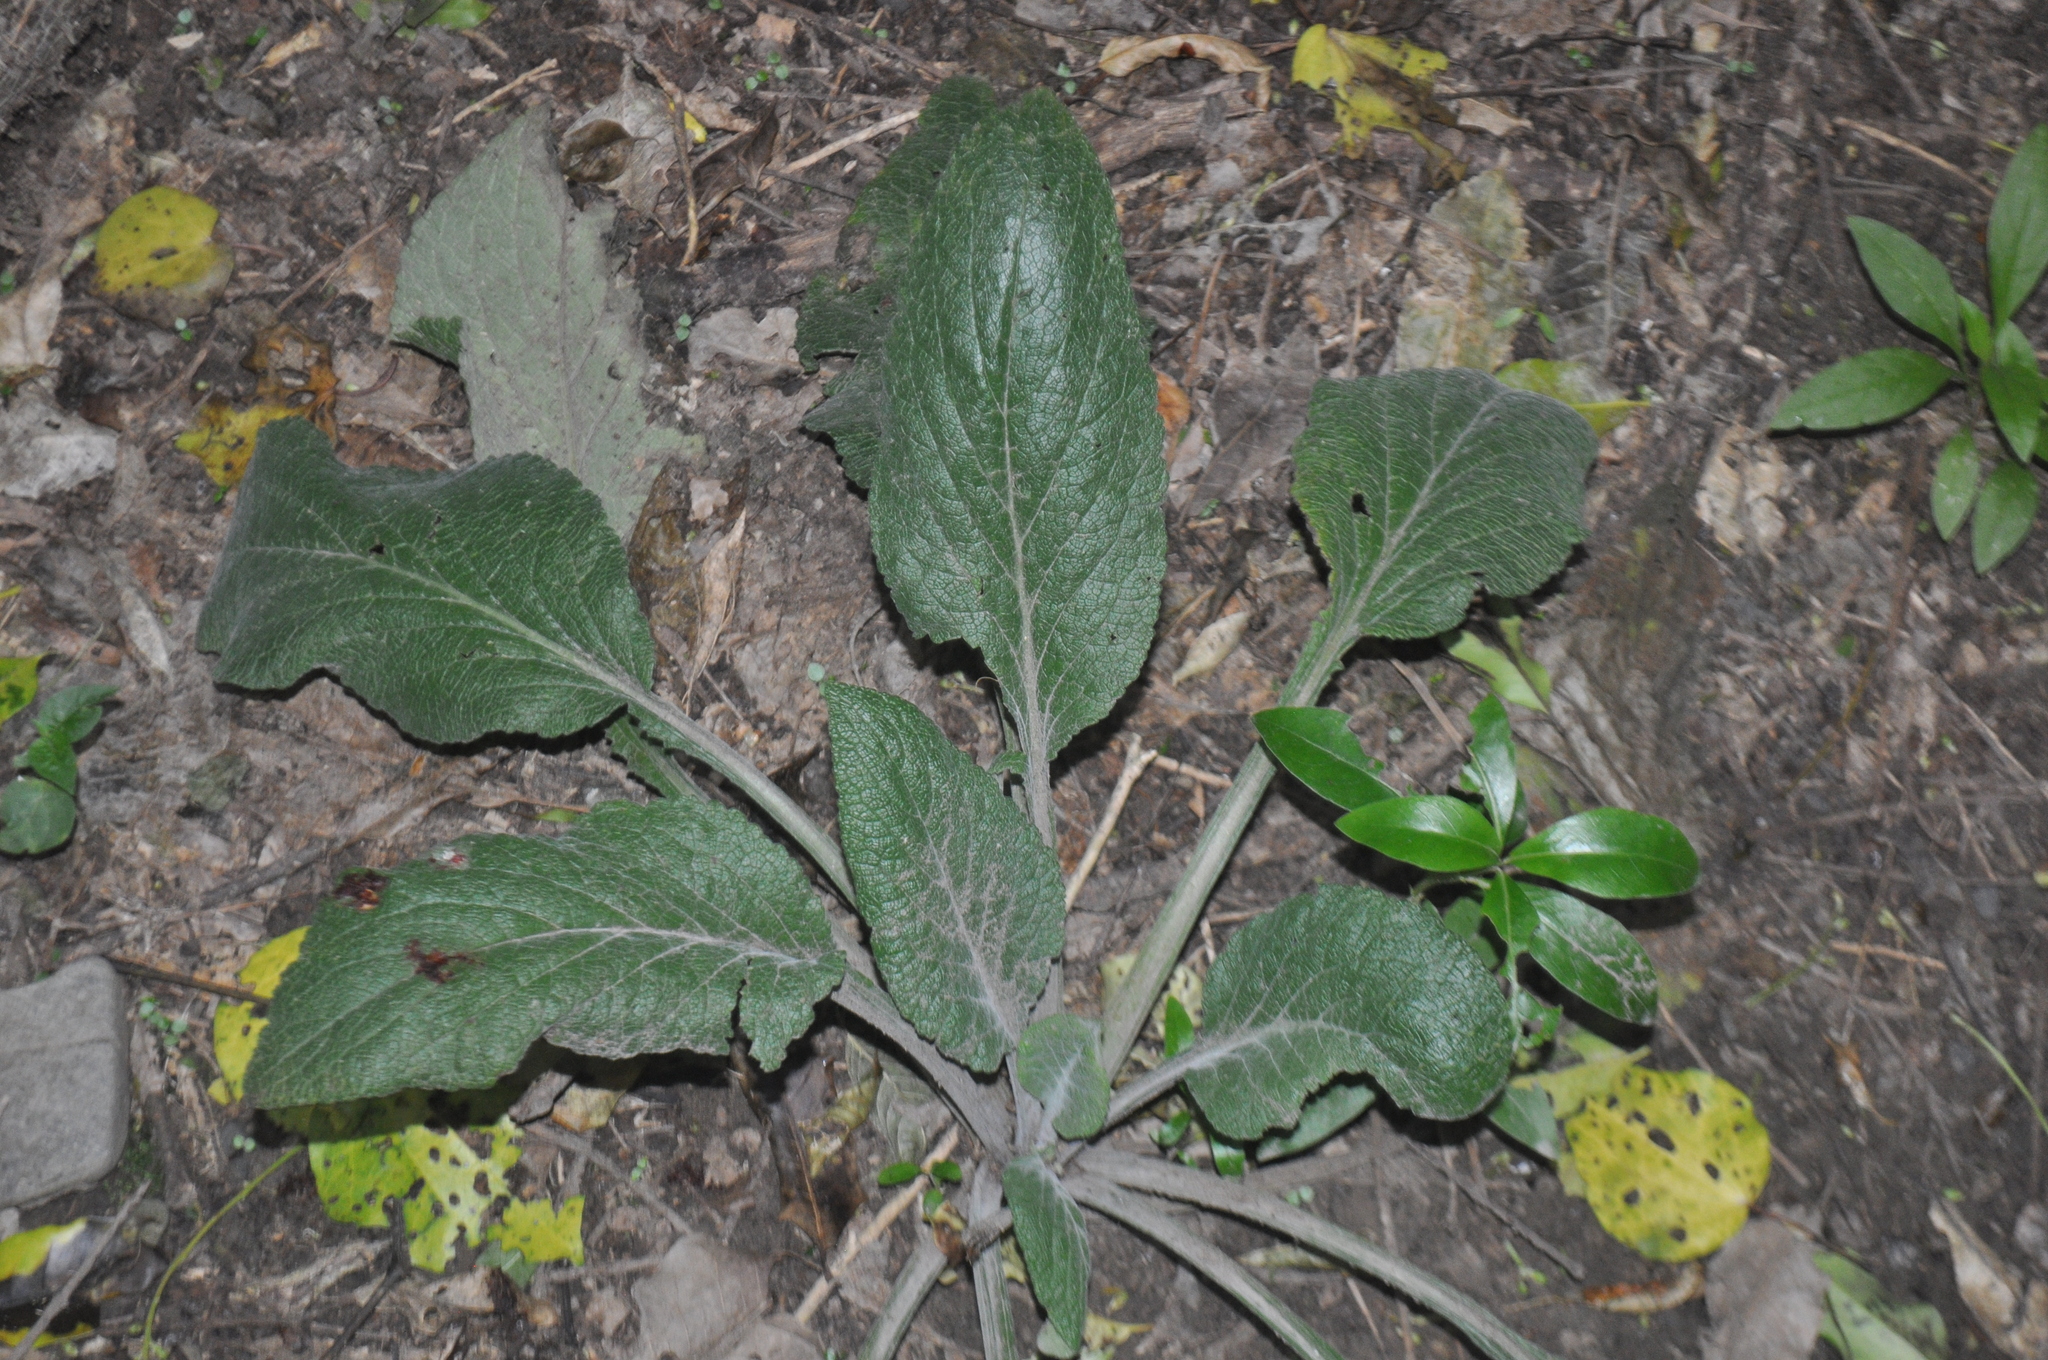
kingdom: Plantae
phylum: Tracheophyta
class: Magnoliopsida
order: Lamiales
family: Plantaginaceae
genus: Digitalis
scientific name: Digitalis purpurea
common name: Foxglove
